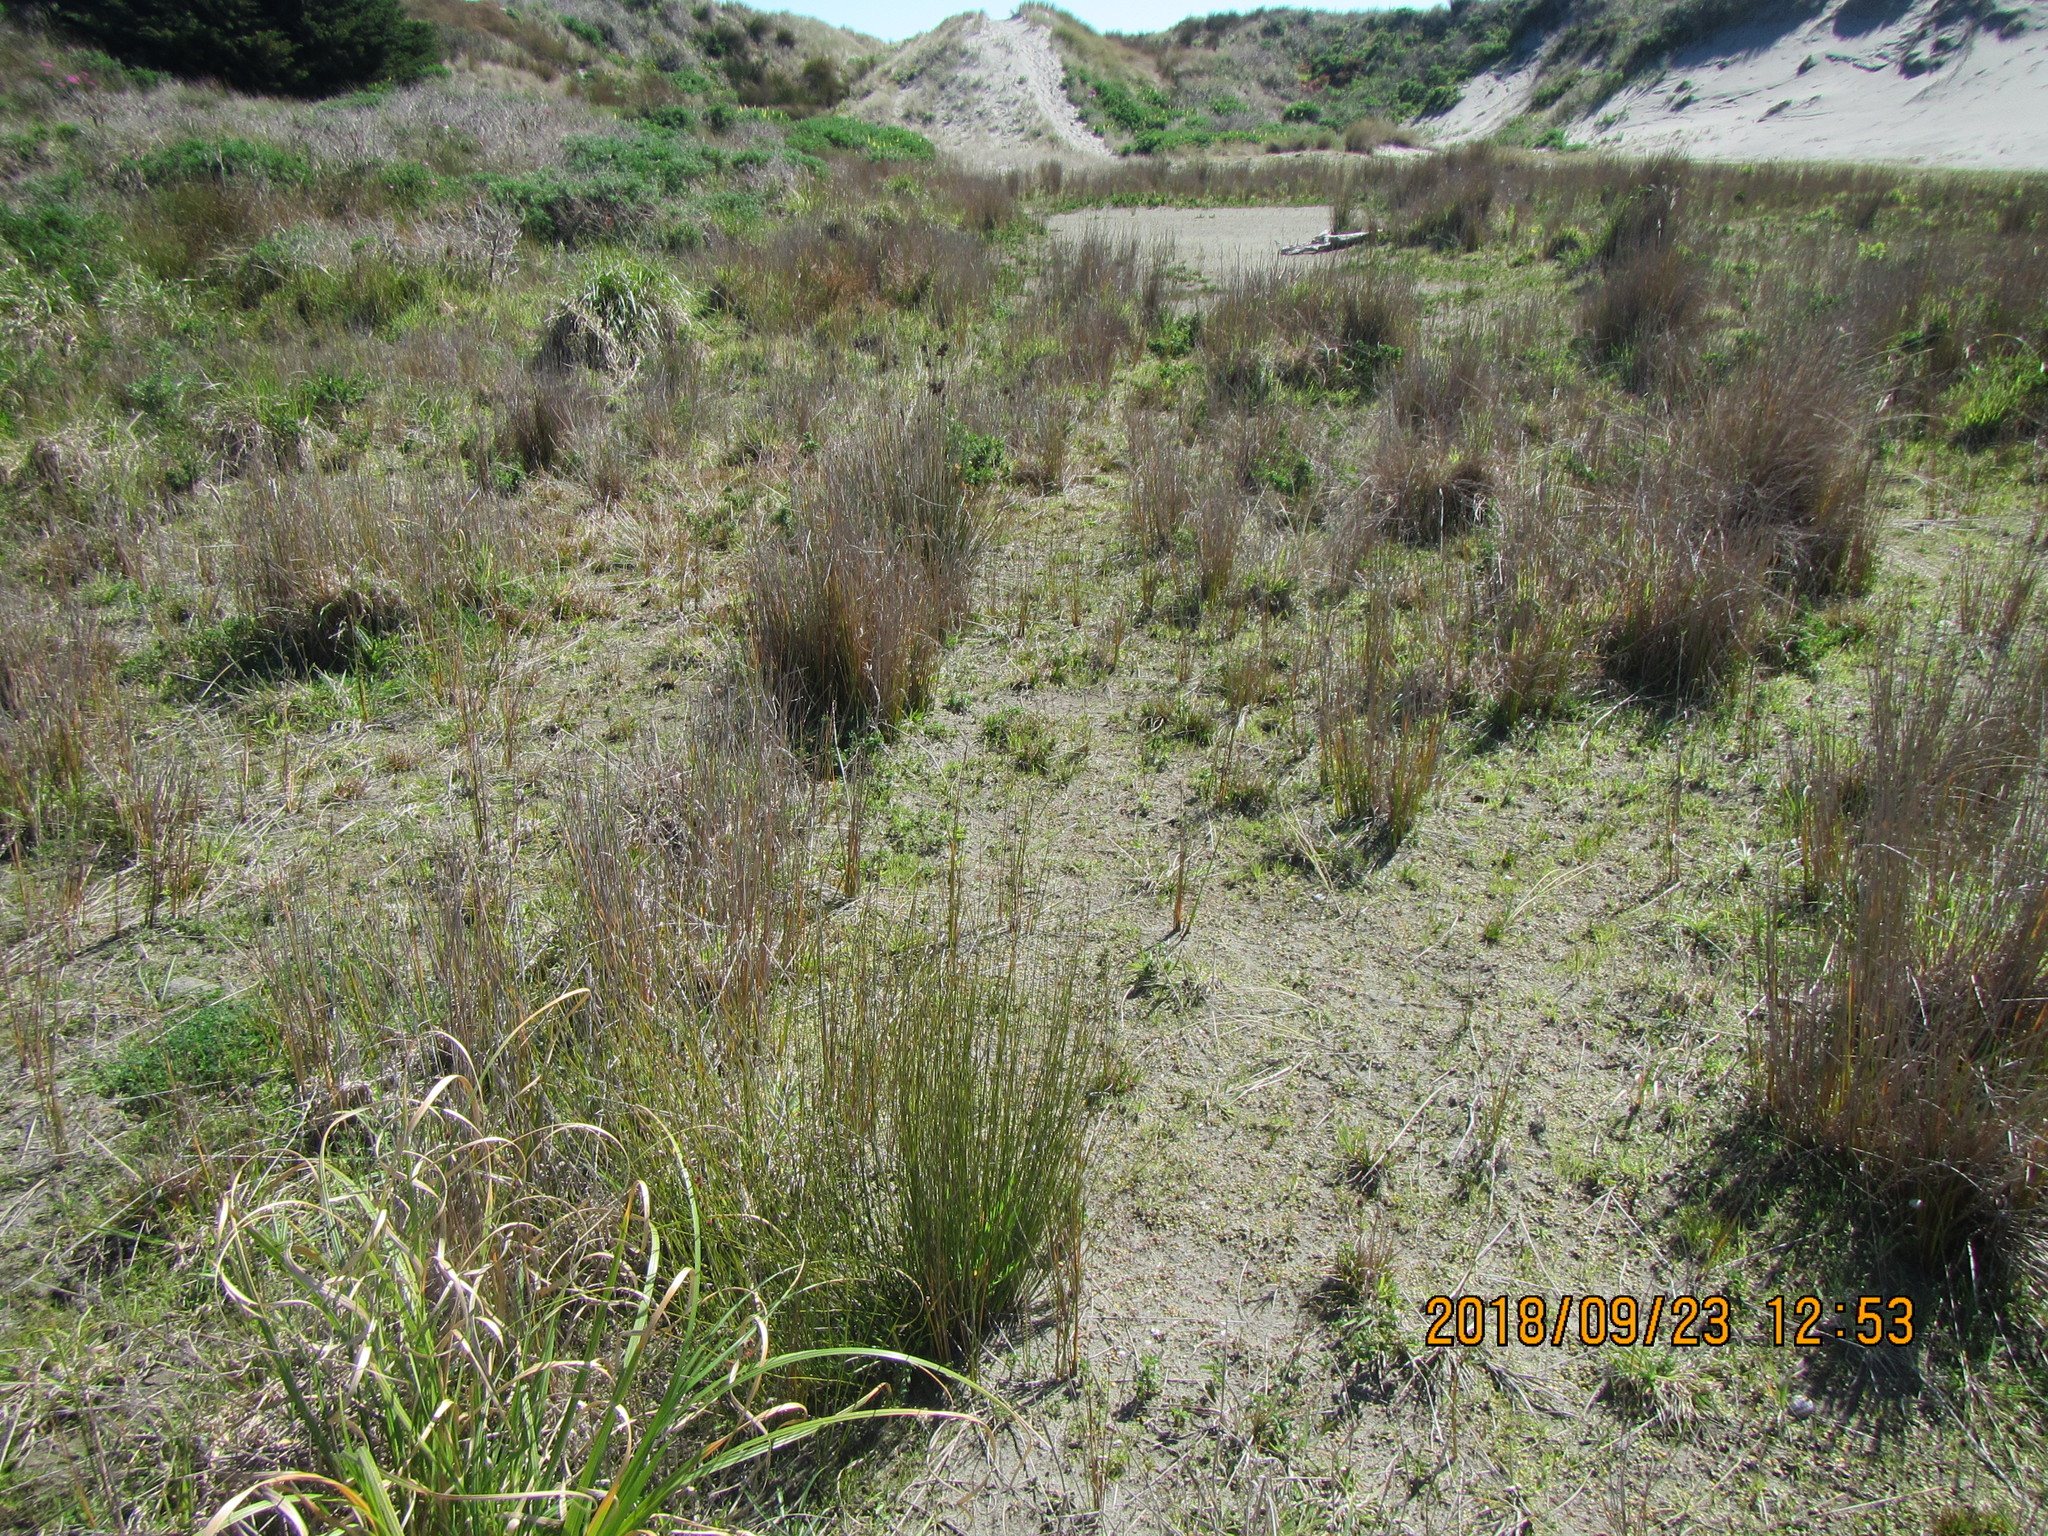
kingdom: Plantae
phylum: Tracheophyta
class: Liliopsida
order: Poales
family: Restionaceae
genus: Apodasmia
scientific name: Apodasmia similis
